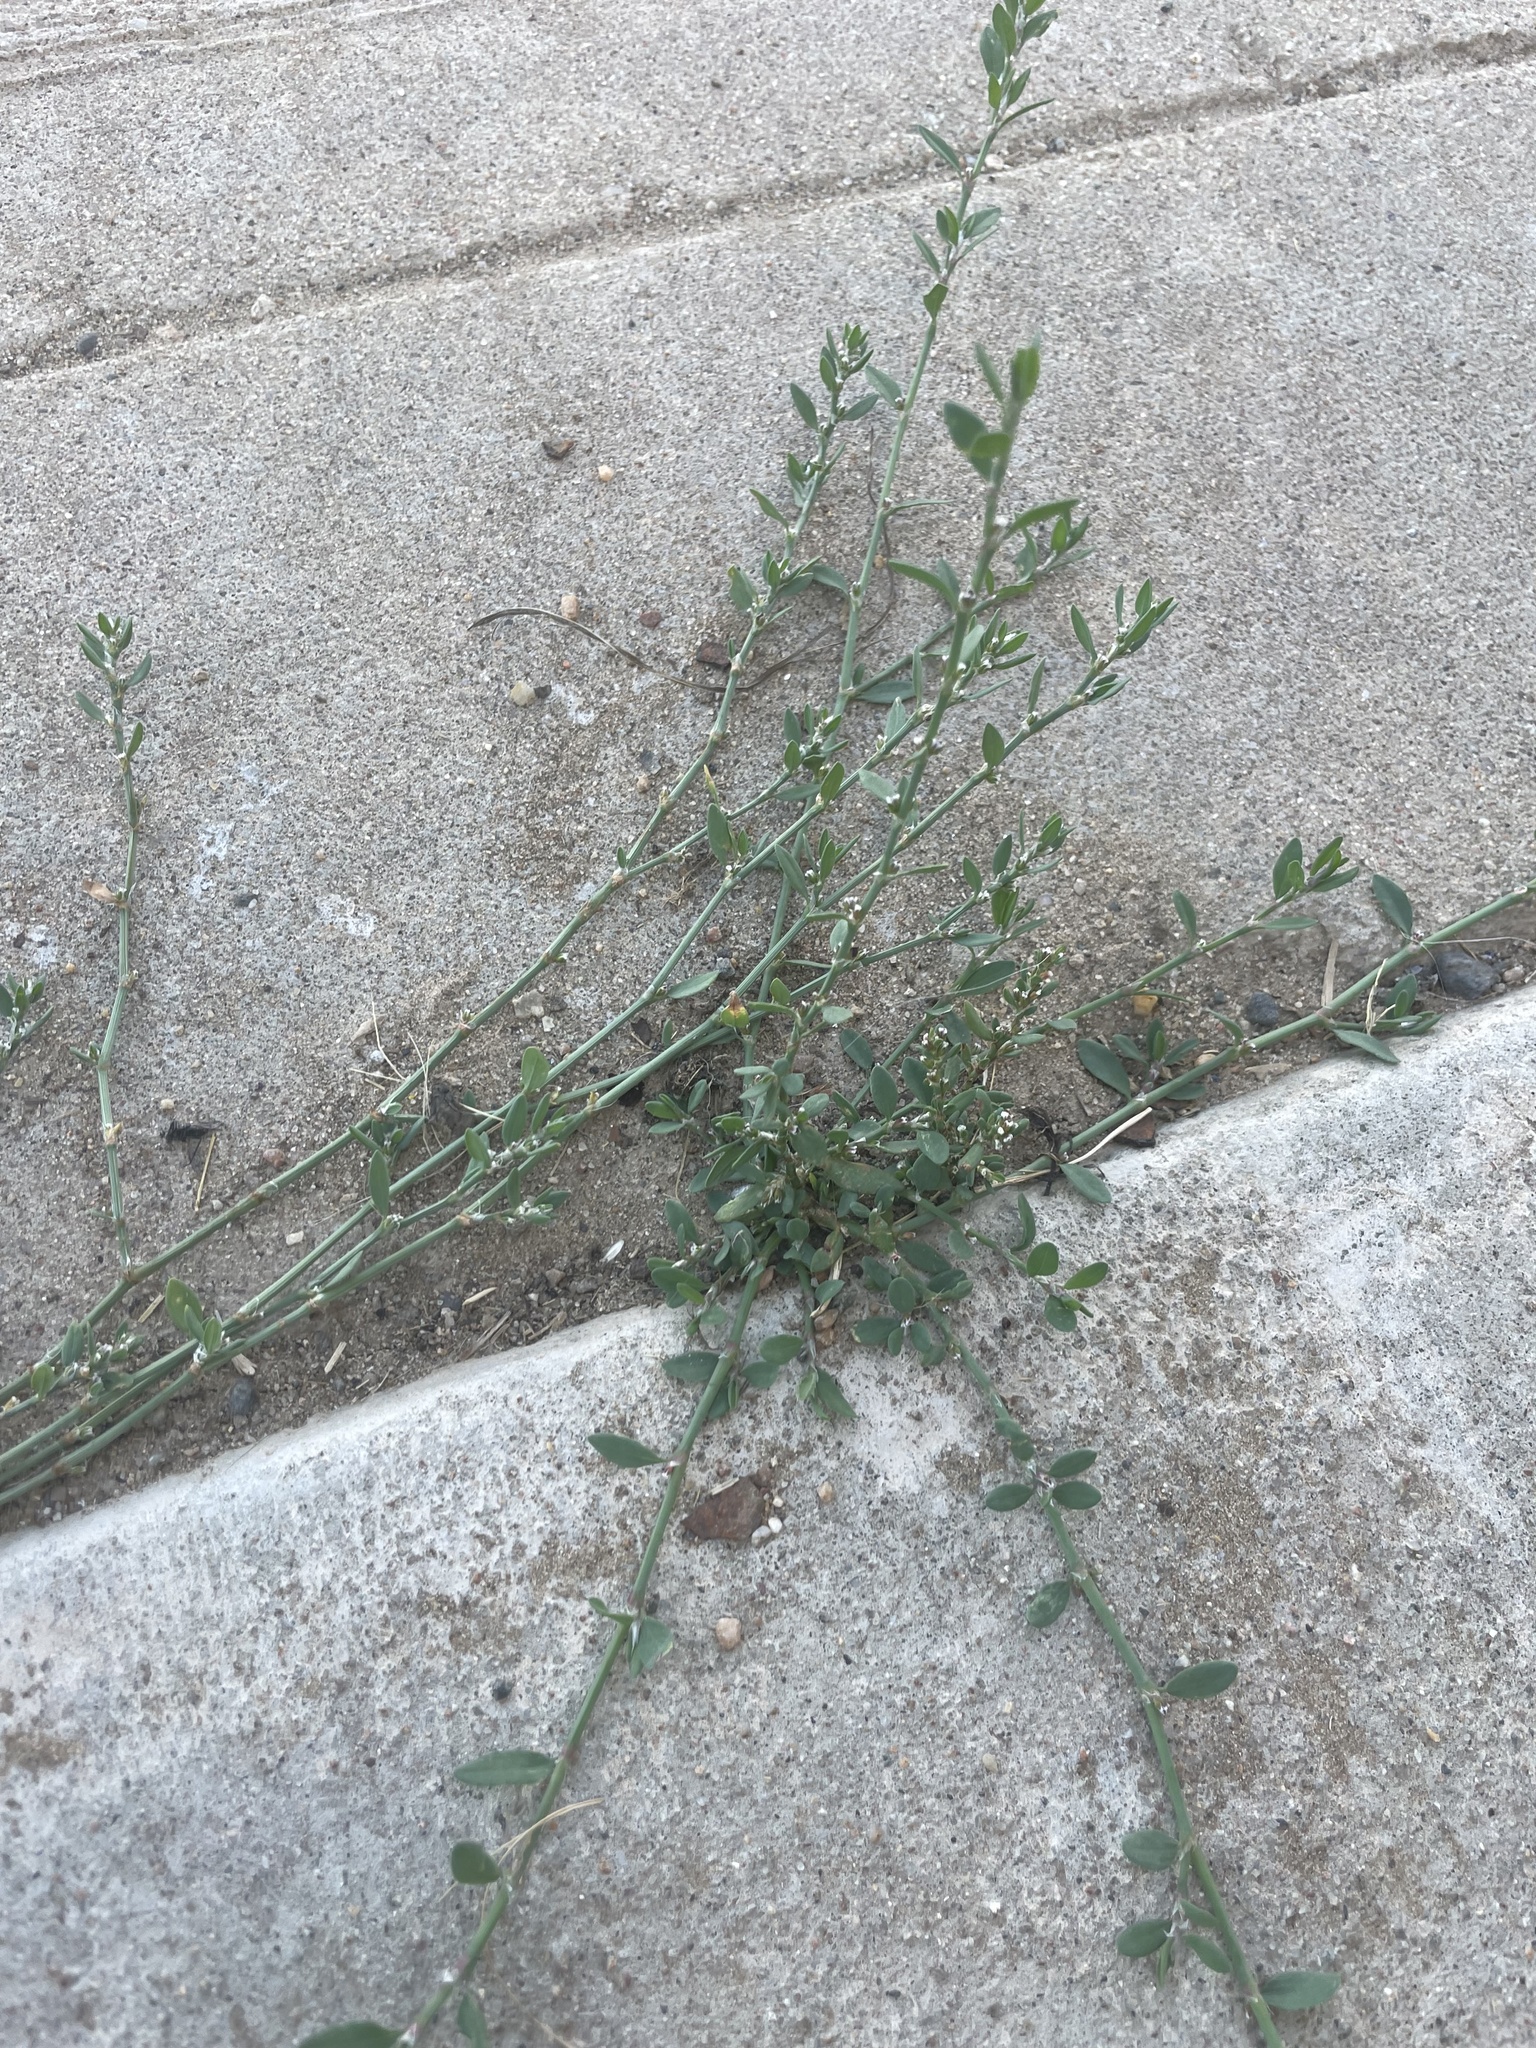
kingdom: Plantae
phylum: Tracheophyta
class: Magnoliopsida
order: Caryophyllales
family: Polygonaceae
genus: Polygonum
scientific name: Polygonum aviculare
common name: Prostrate knotweed
